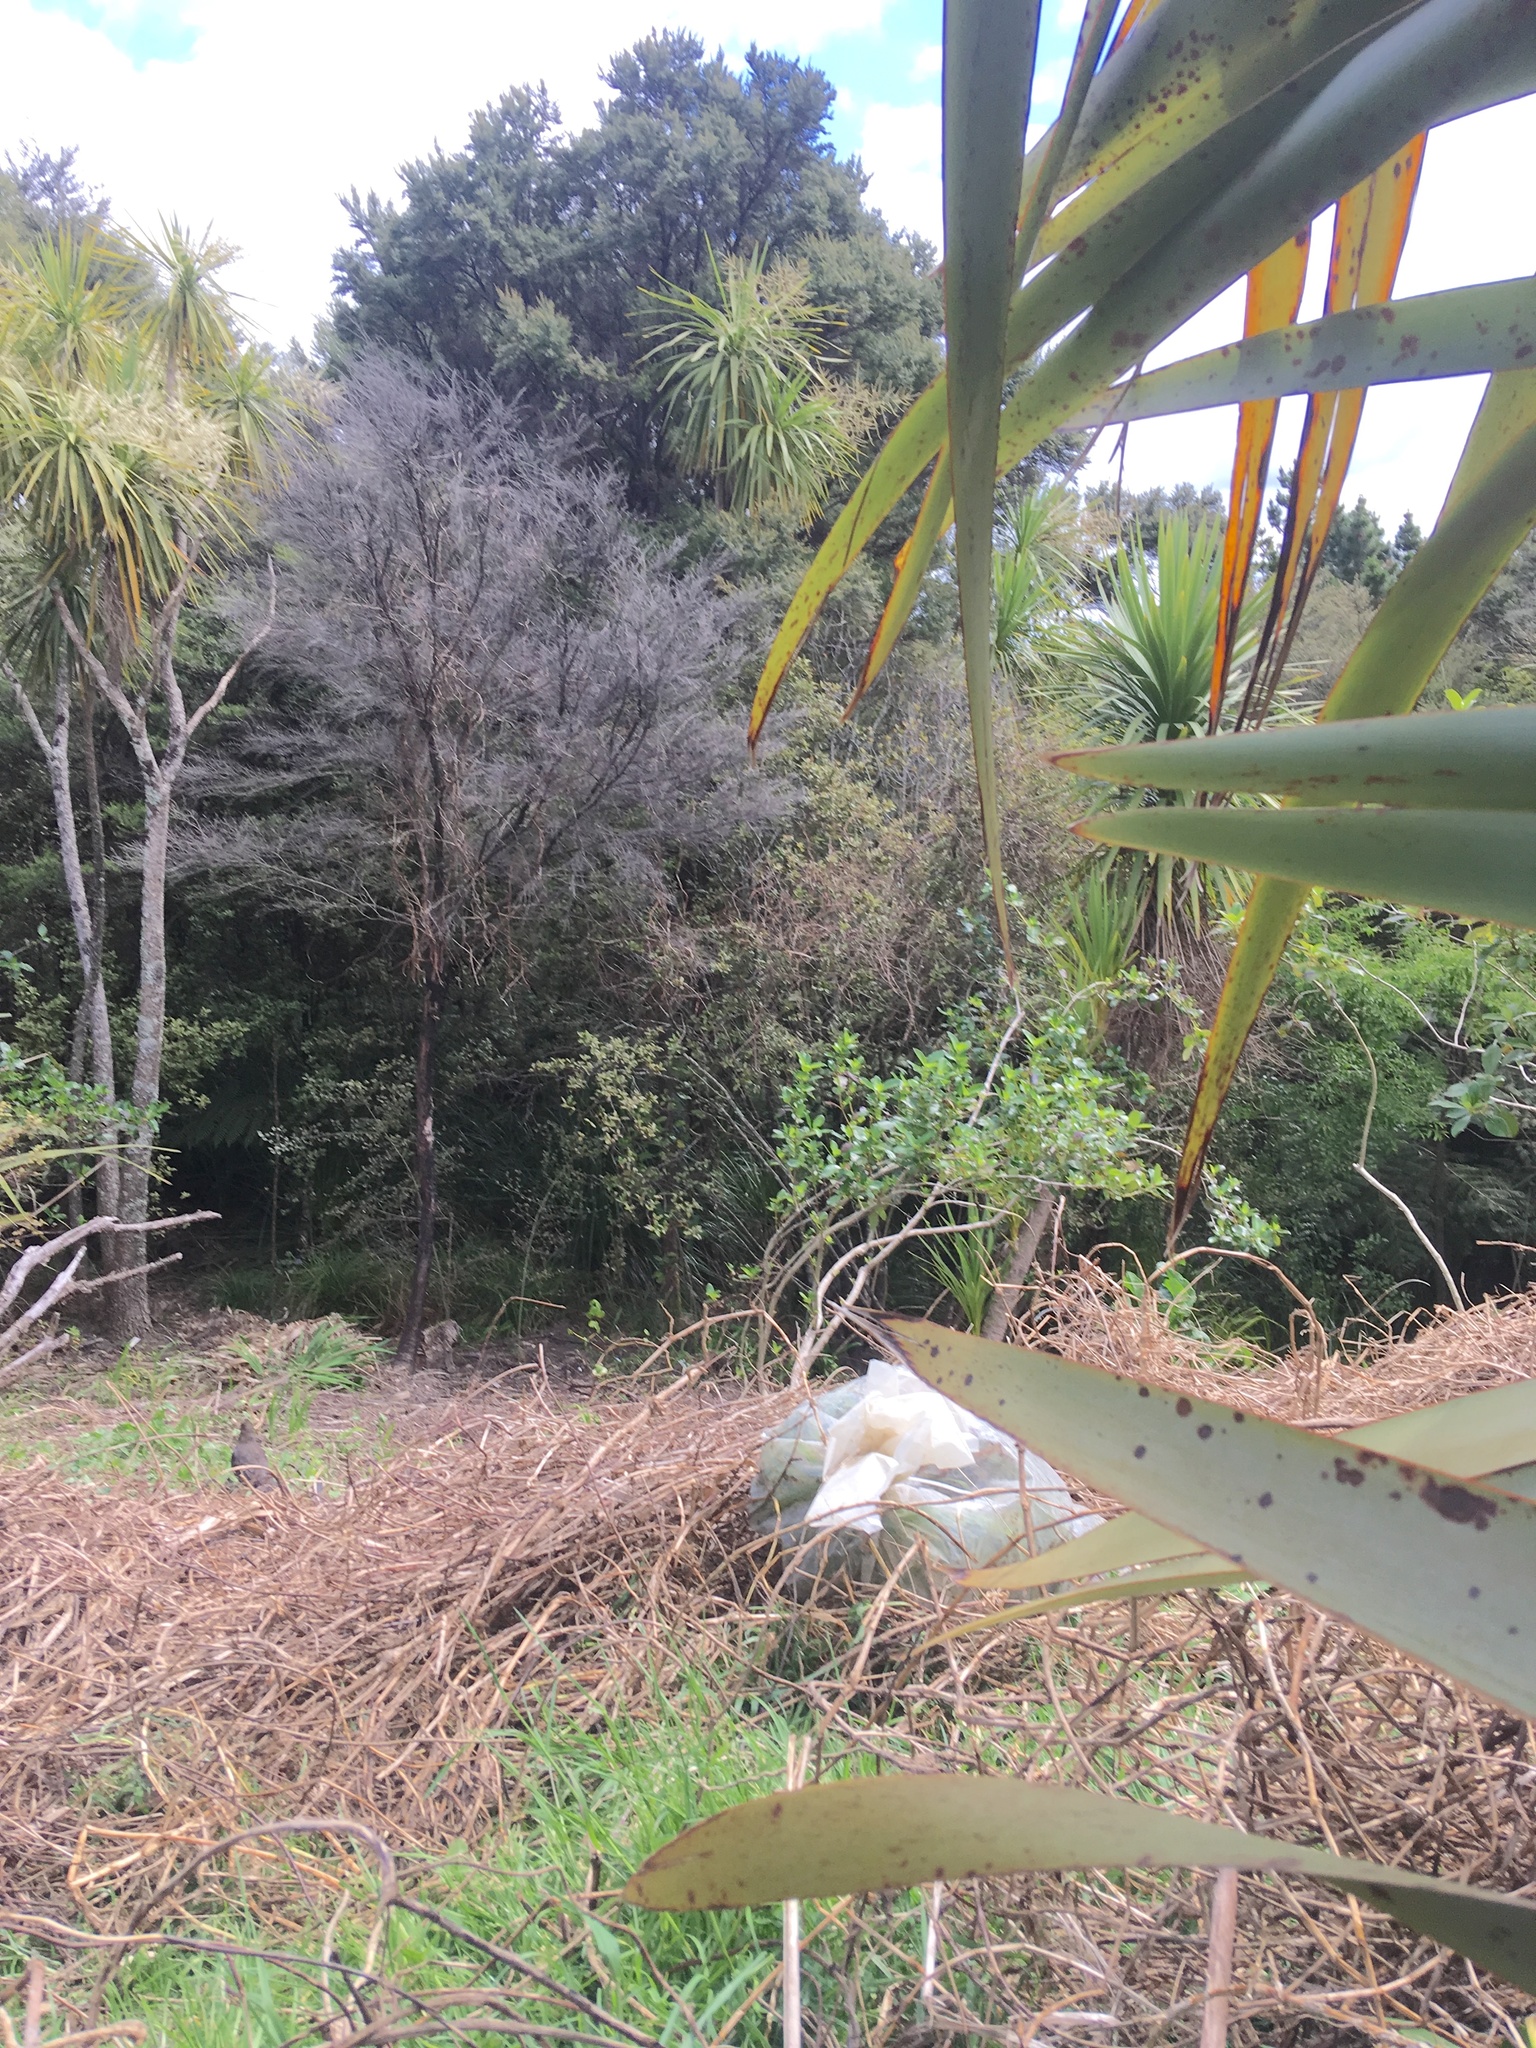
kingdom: Animalia
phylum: Chordata
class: Aves
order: Passeriformes
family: Turdidae
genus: Turdus
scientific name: Turdus merula
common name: Common blackbird
